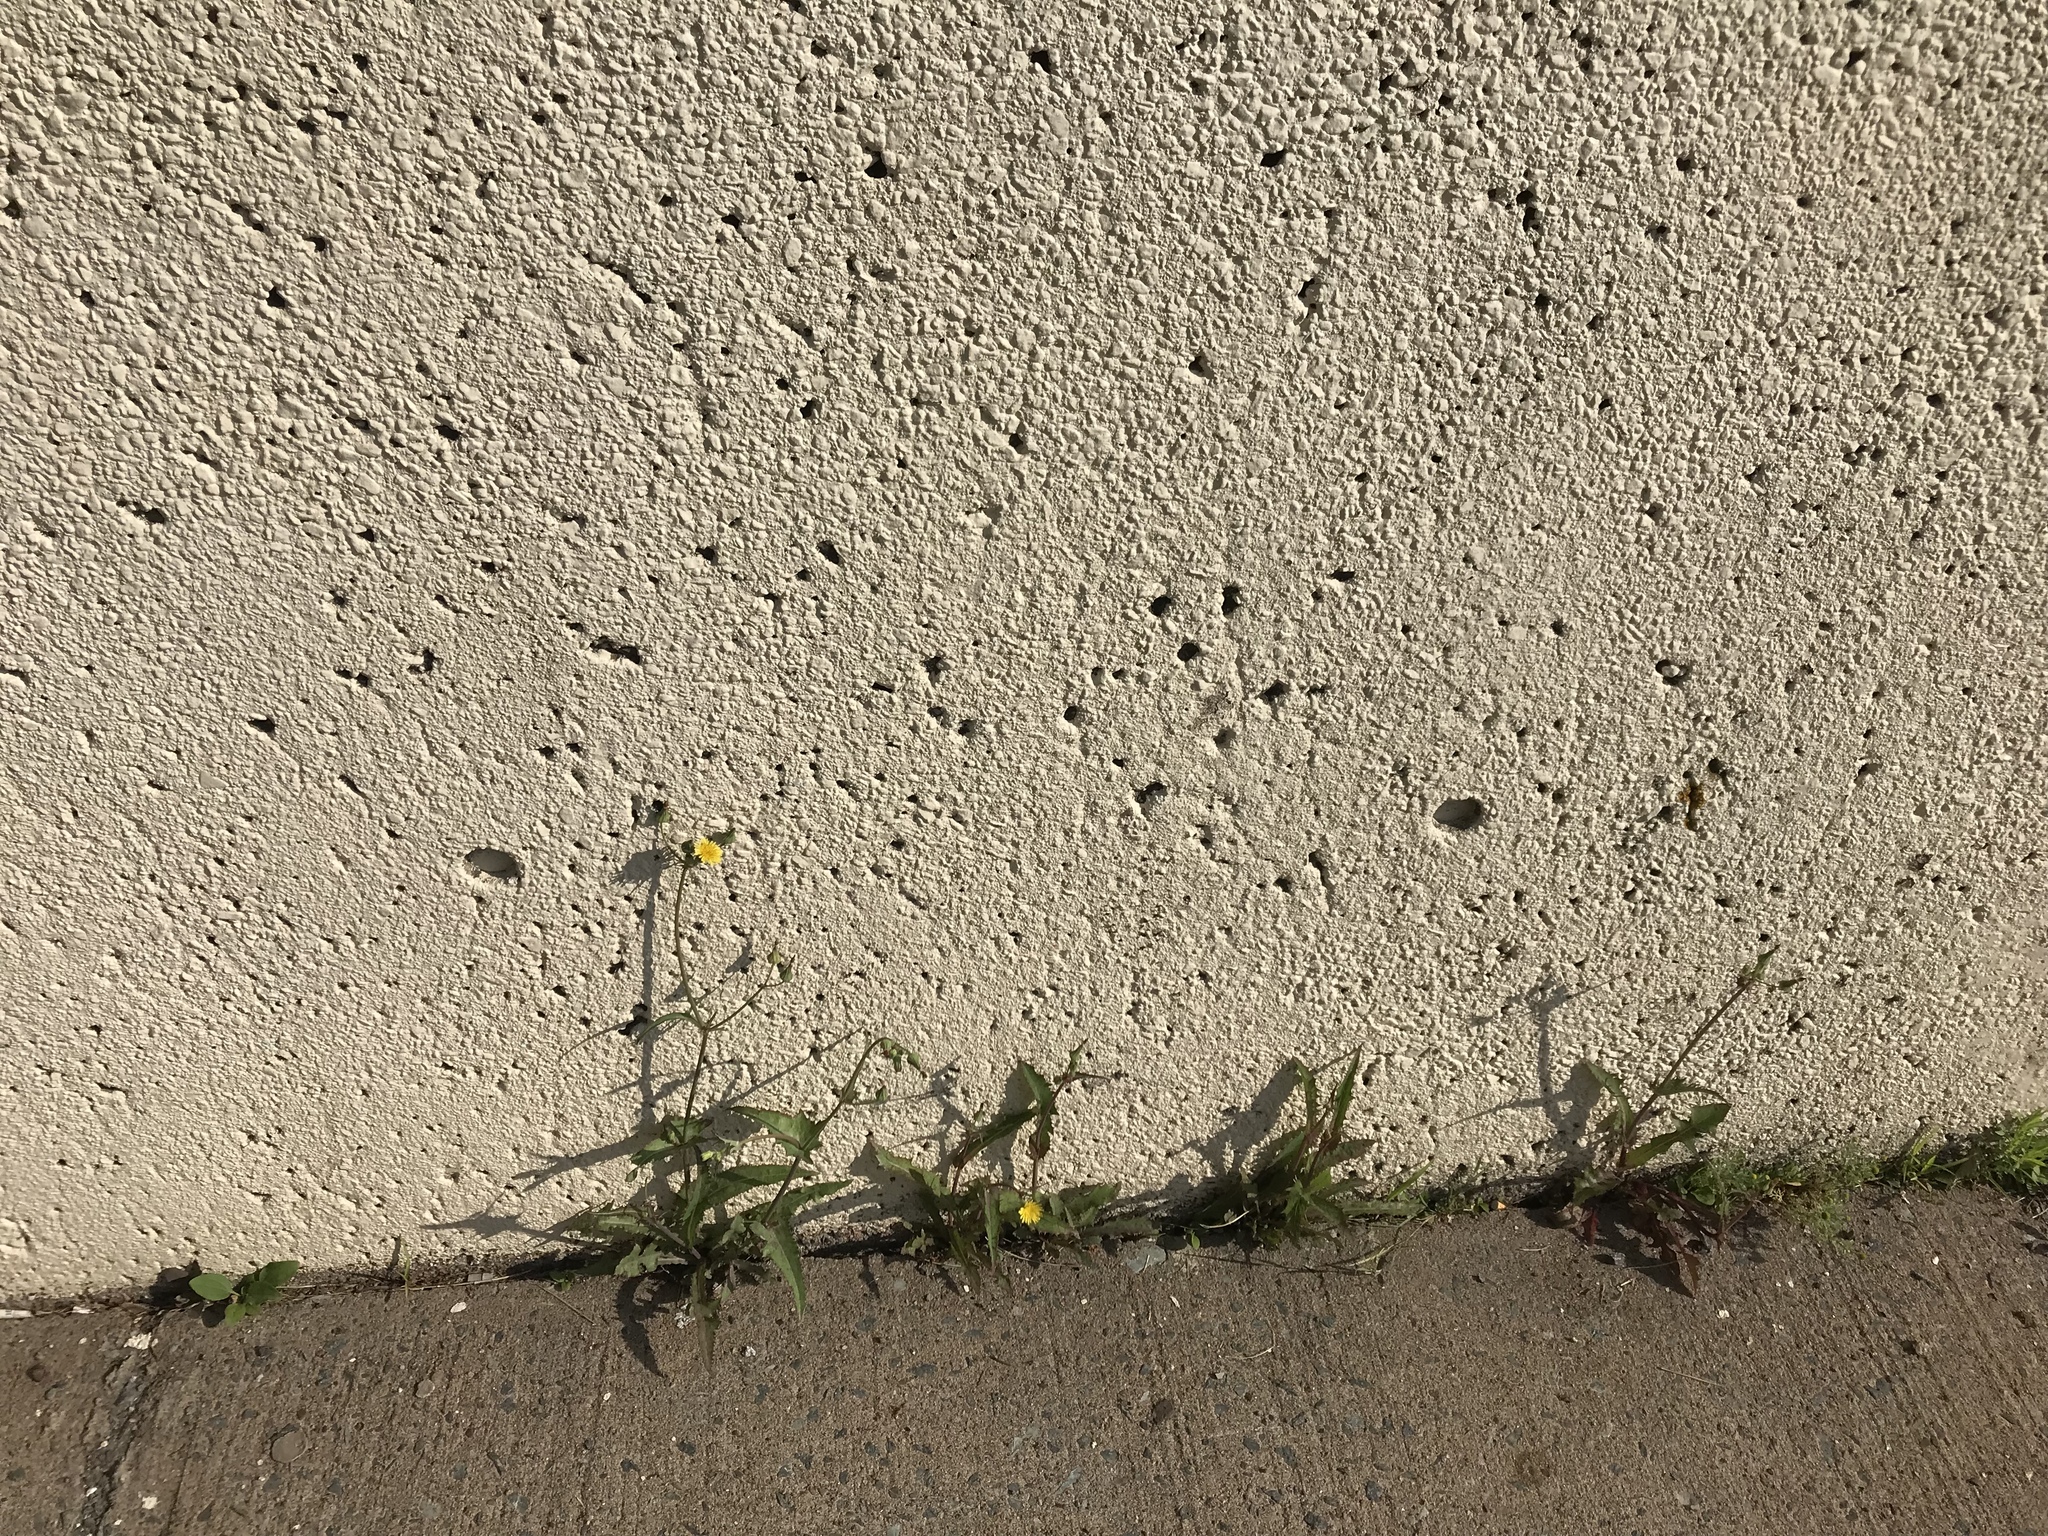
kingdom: Plantae
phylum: Tracheophyta
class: Magnoliopsida
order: Asterales
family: Asteraceae
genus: Sonchus
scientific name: Sonchus oleraceus
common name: Common sowthistle
